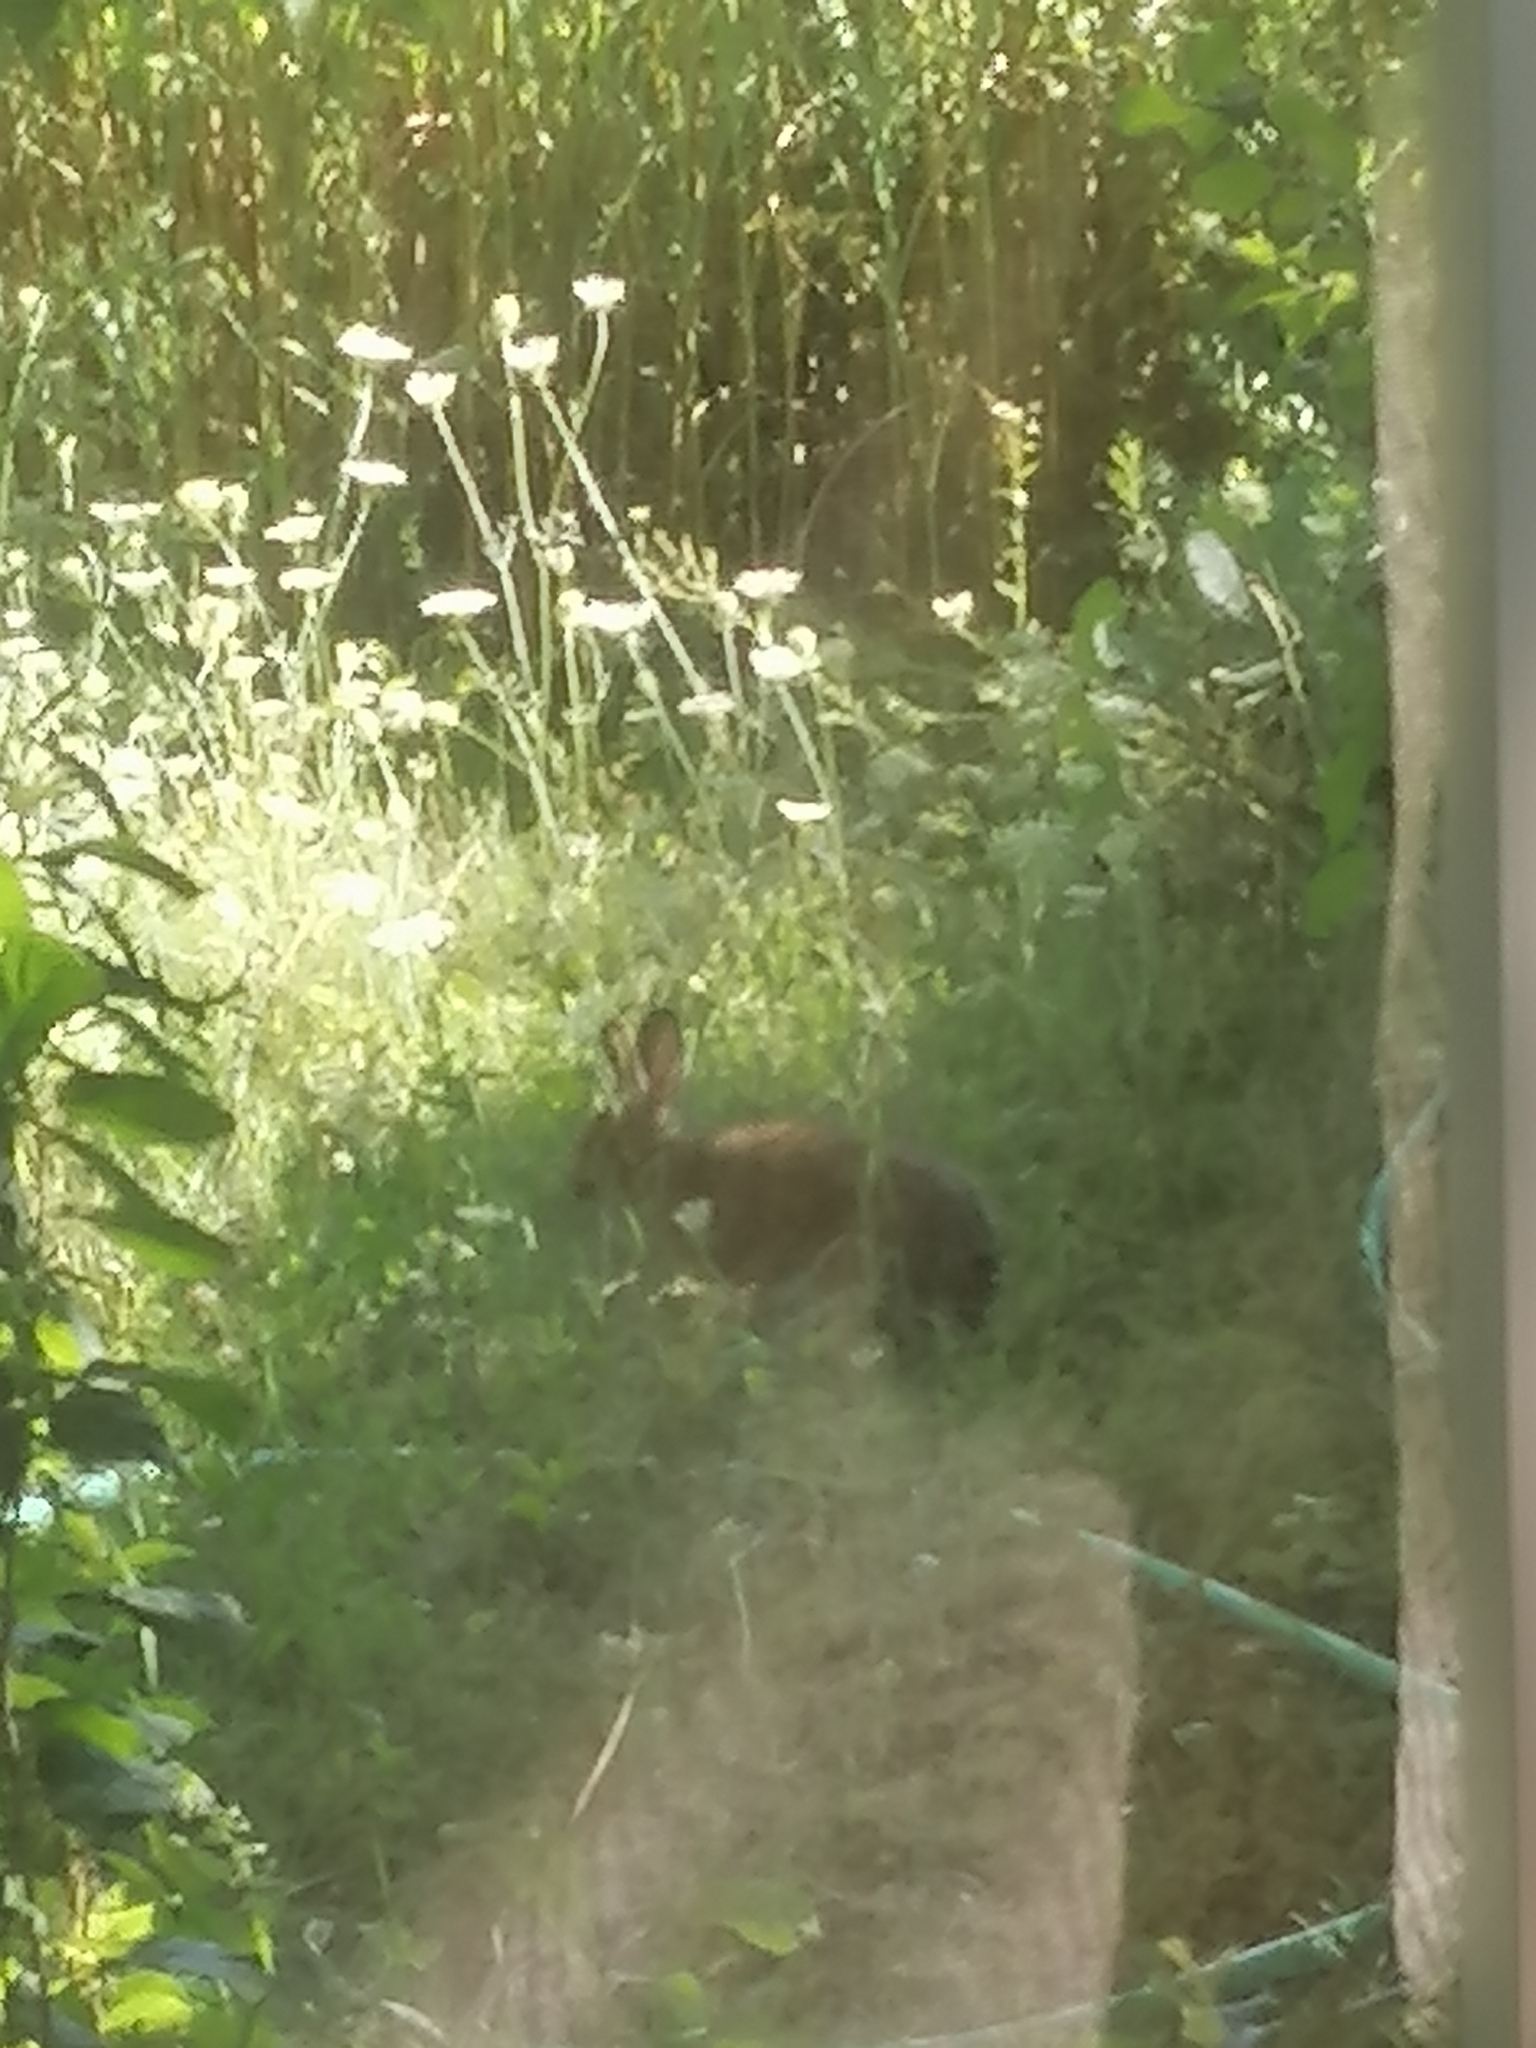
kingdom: Animalia
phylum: Chordata
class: Mammalia
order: Lagomorpha
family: Leporidae
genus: Lepus
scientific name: Lepus americanus
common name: Snowshoe hare
